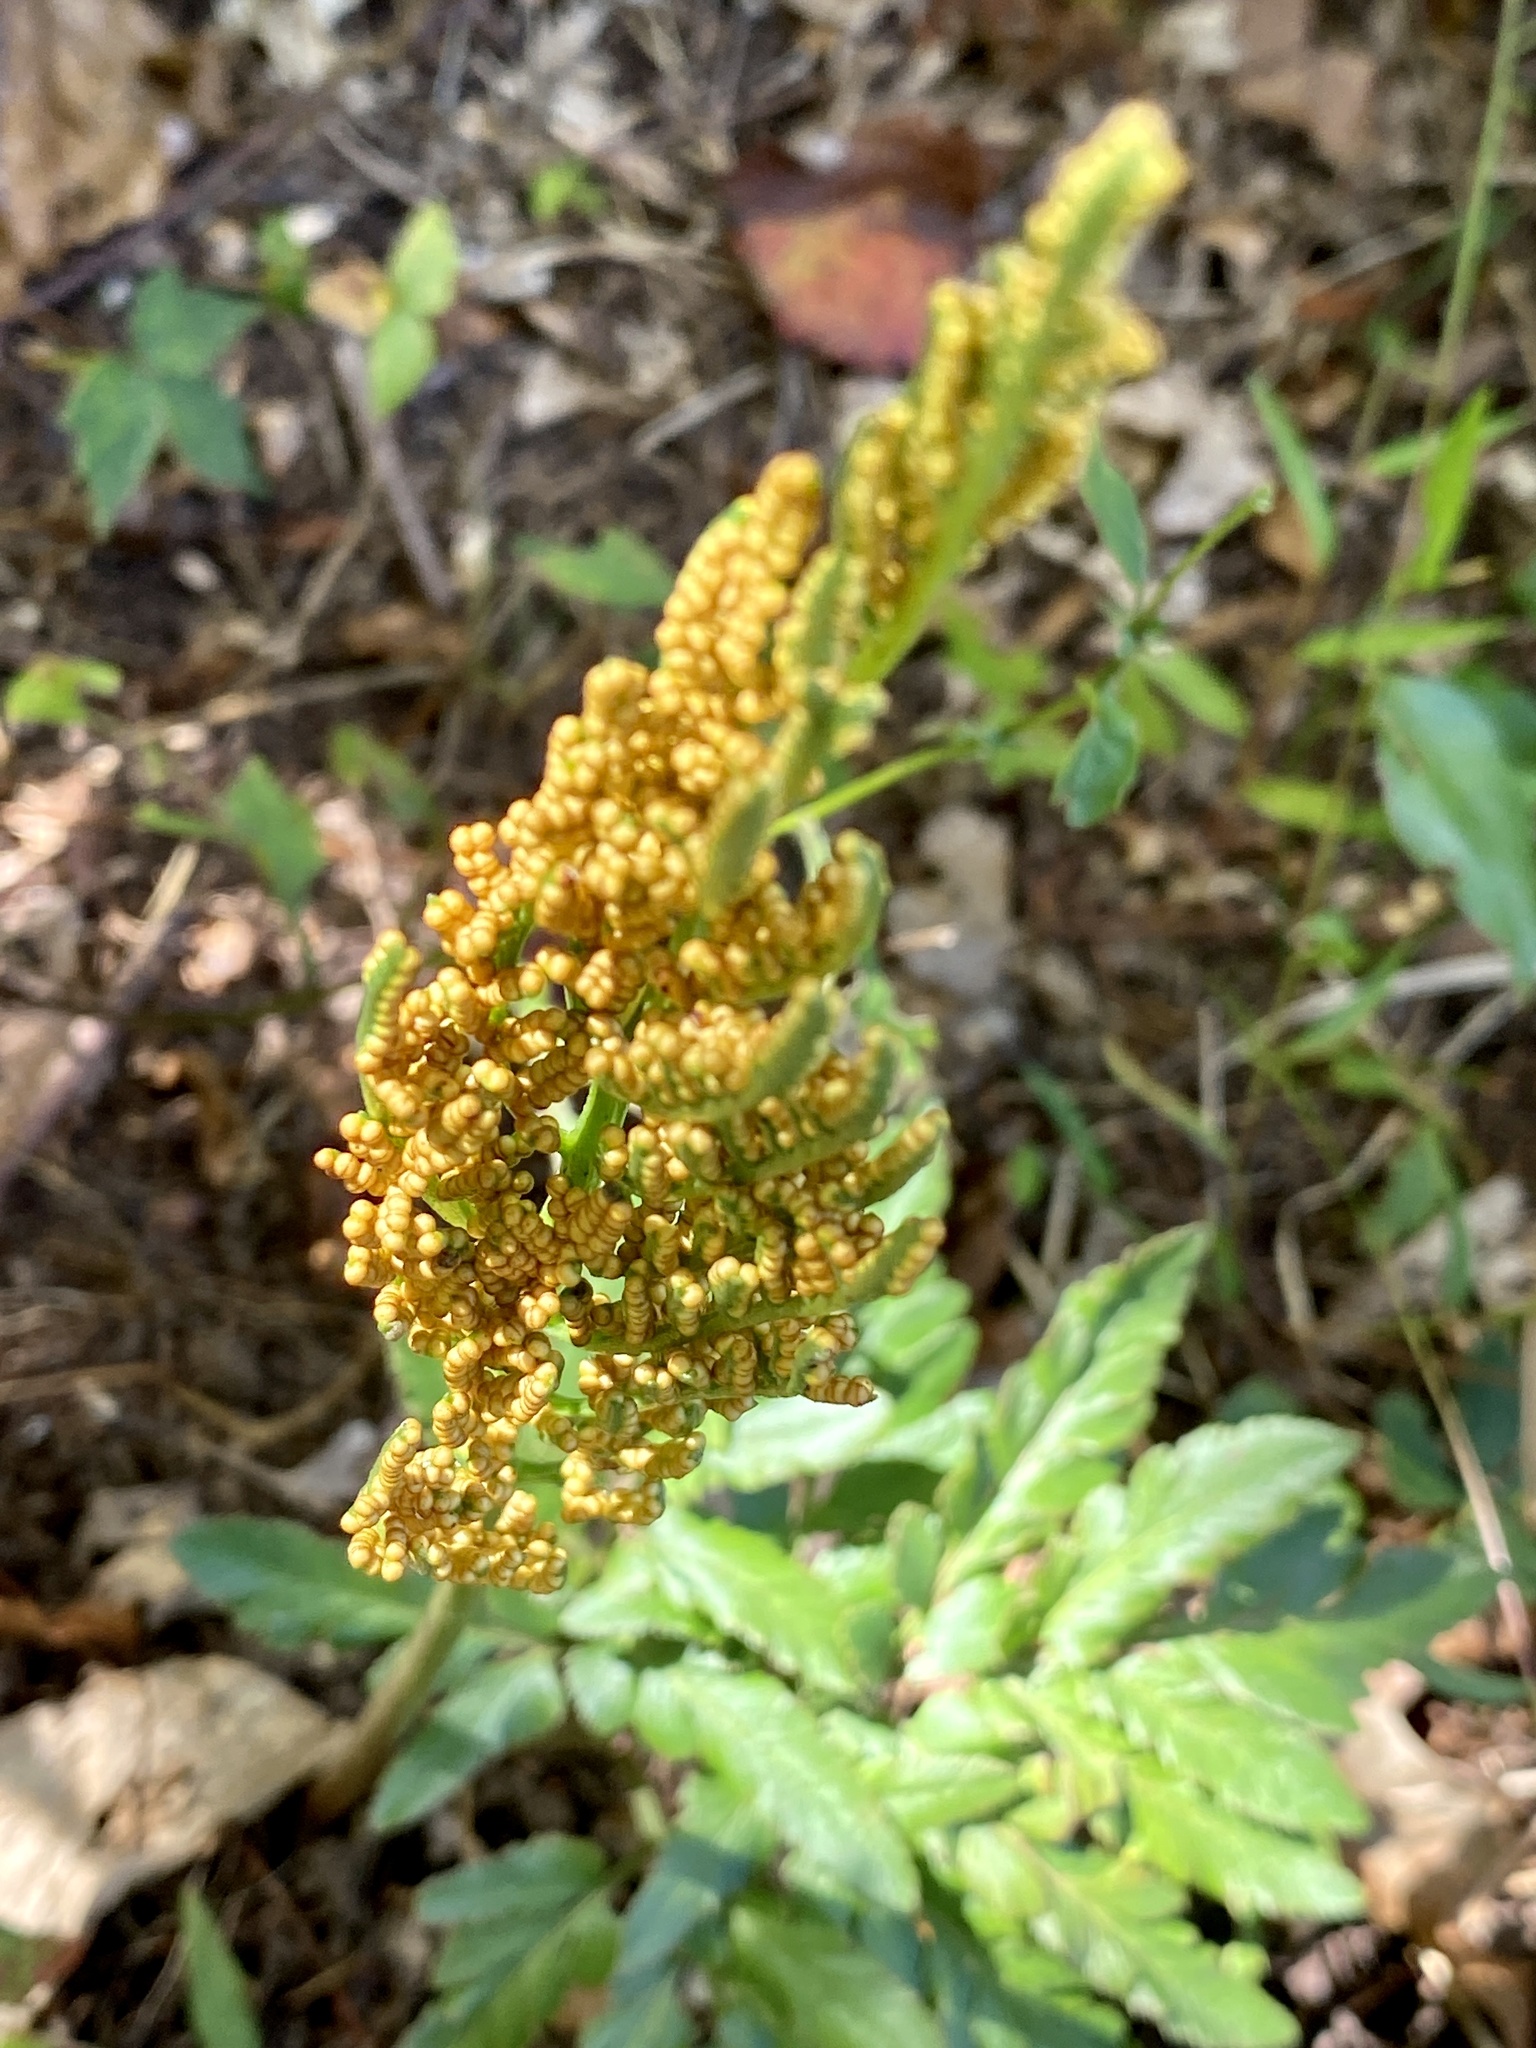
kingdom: Plantae
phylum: Tracheophyta
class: Polypodiopsida
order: Ophioglossales
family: Ophioglossaceae
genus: Sceptridium
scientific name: Sceptridium dissectum
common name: Cut-leaved grapefern
